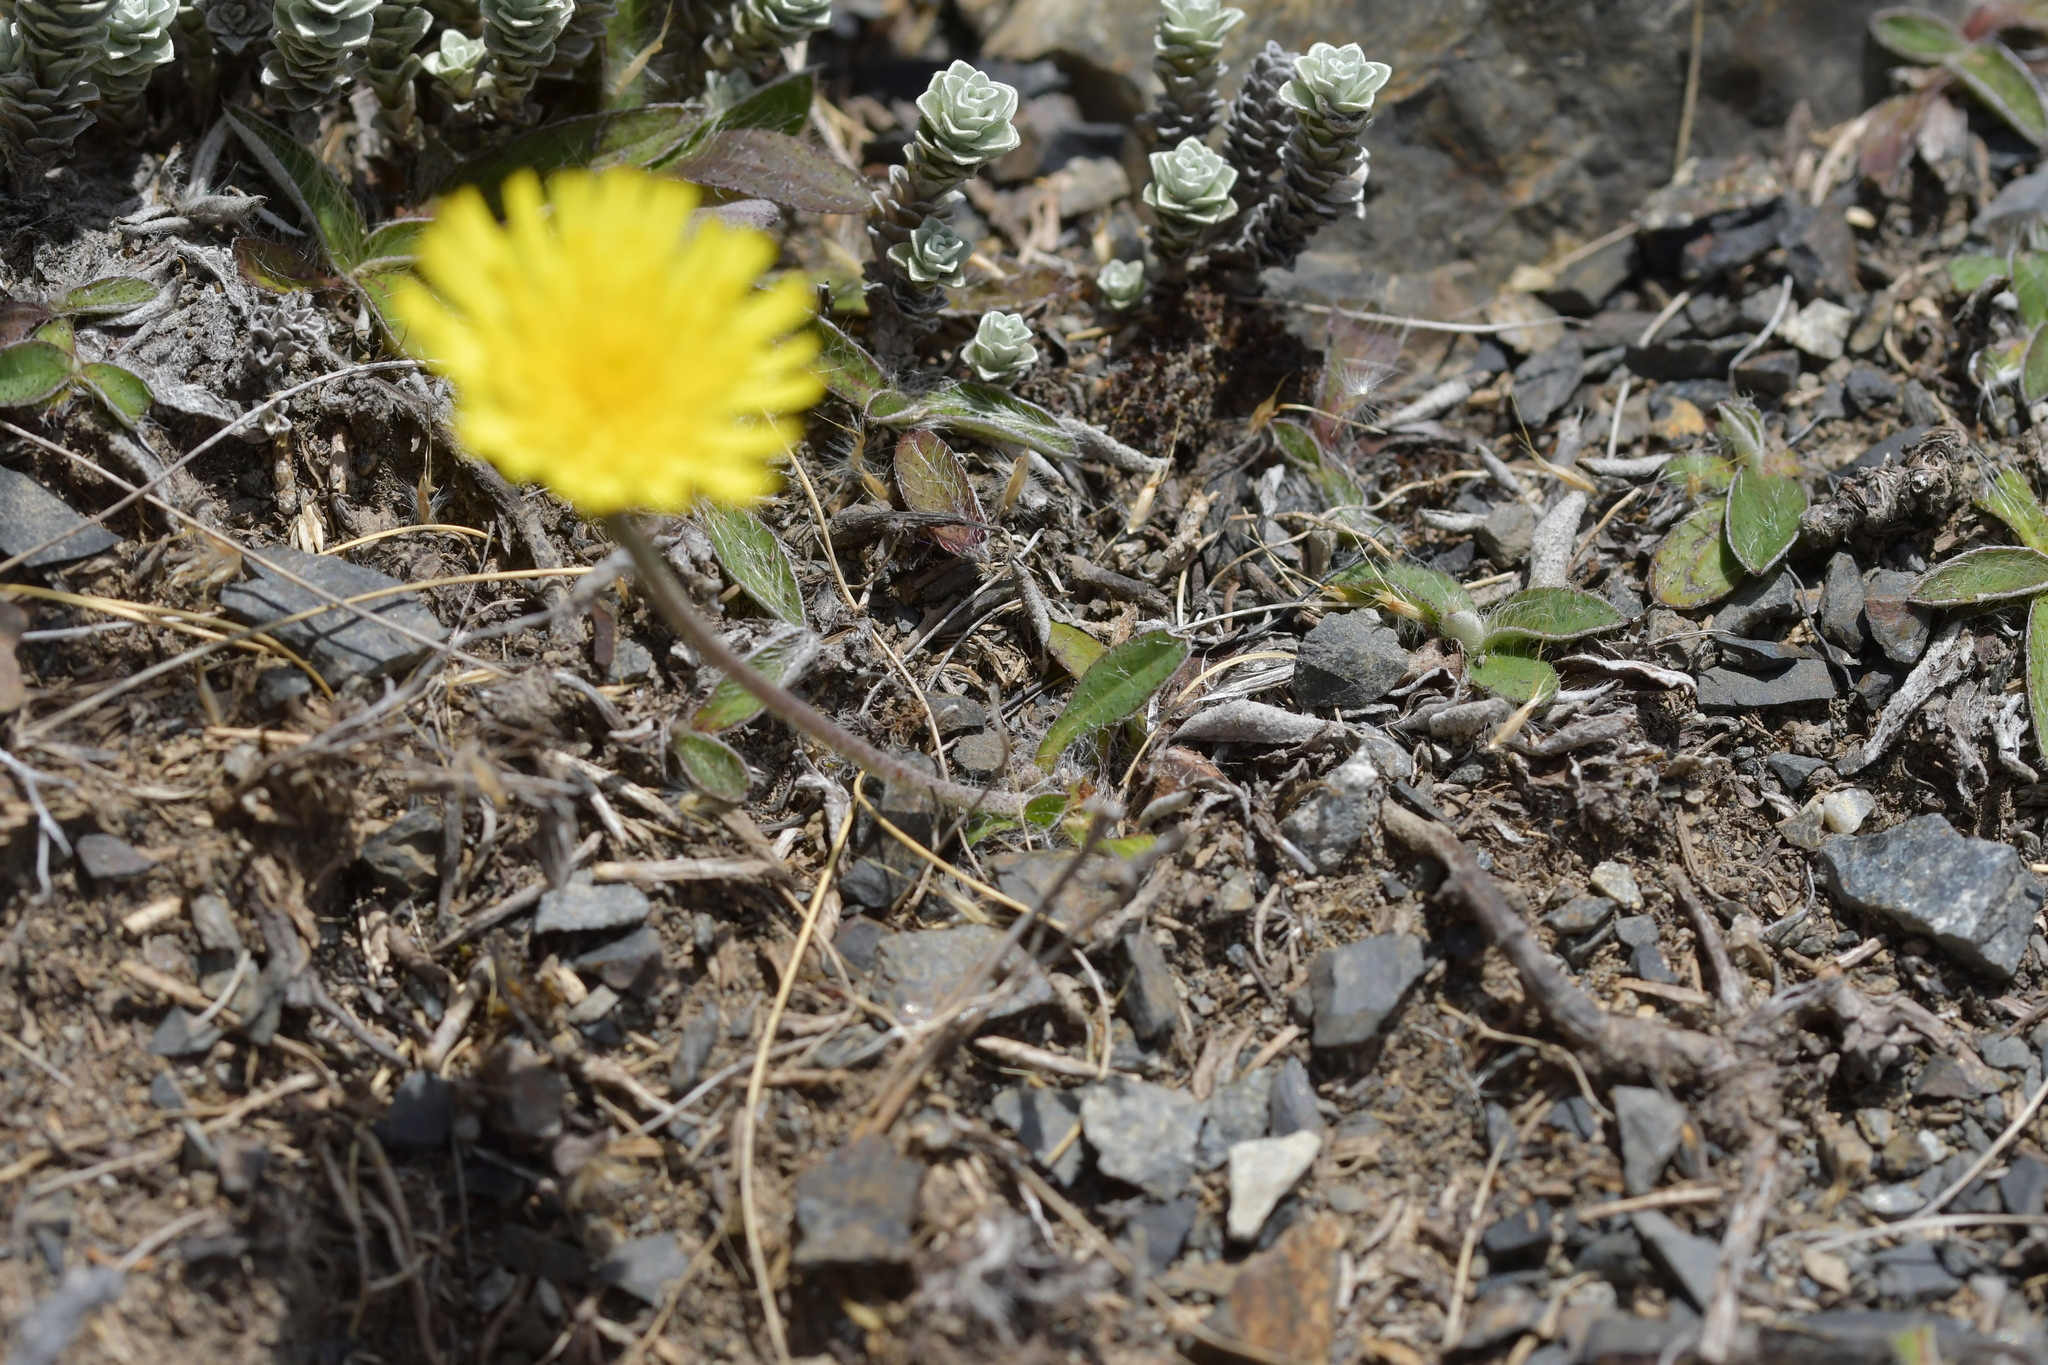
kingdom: Plantae
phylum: Tracheophyta
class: Magnoliopsida
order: Asterales
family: Asteraceae
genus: Pilosella
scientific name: Pilosella officinarum
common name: Mouse-ear hawkweed
